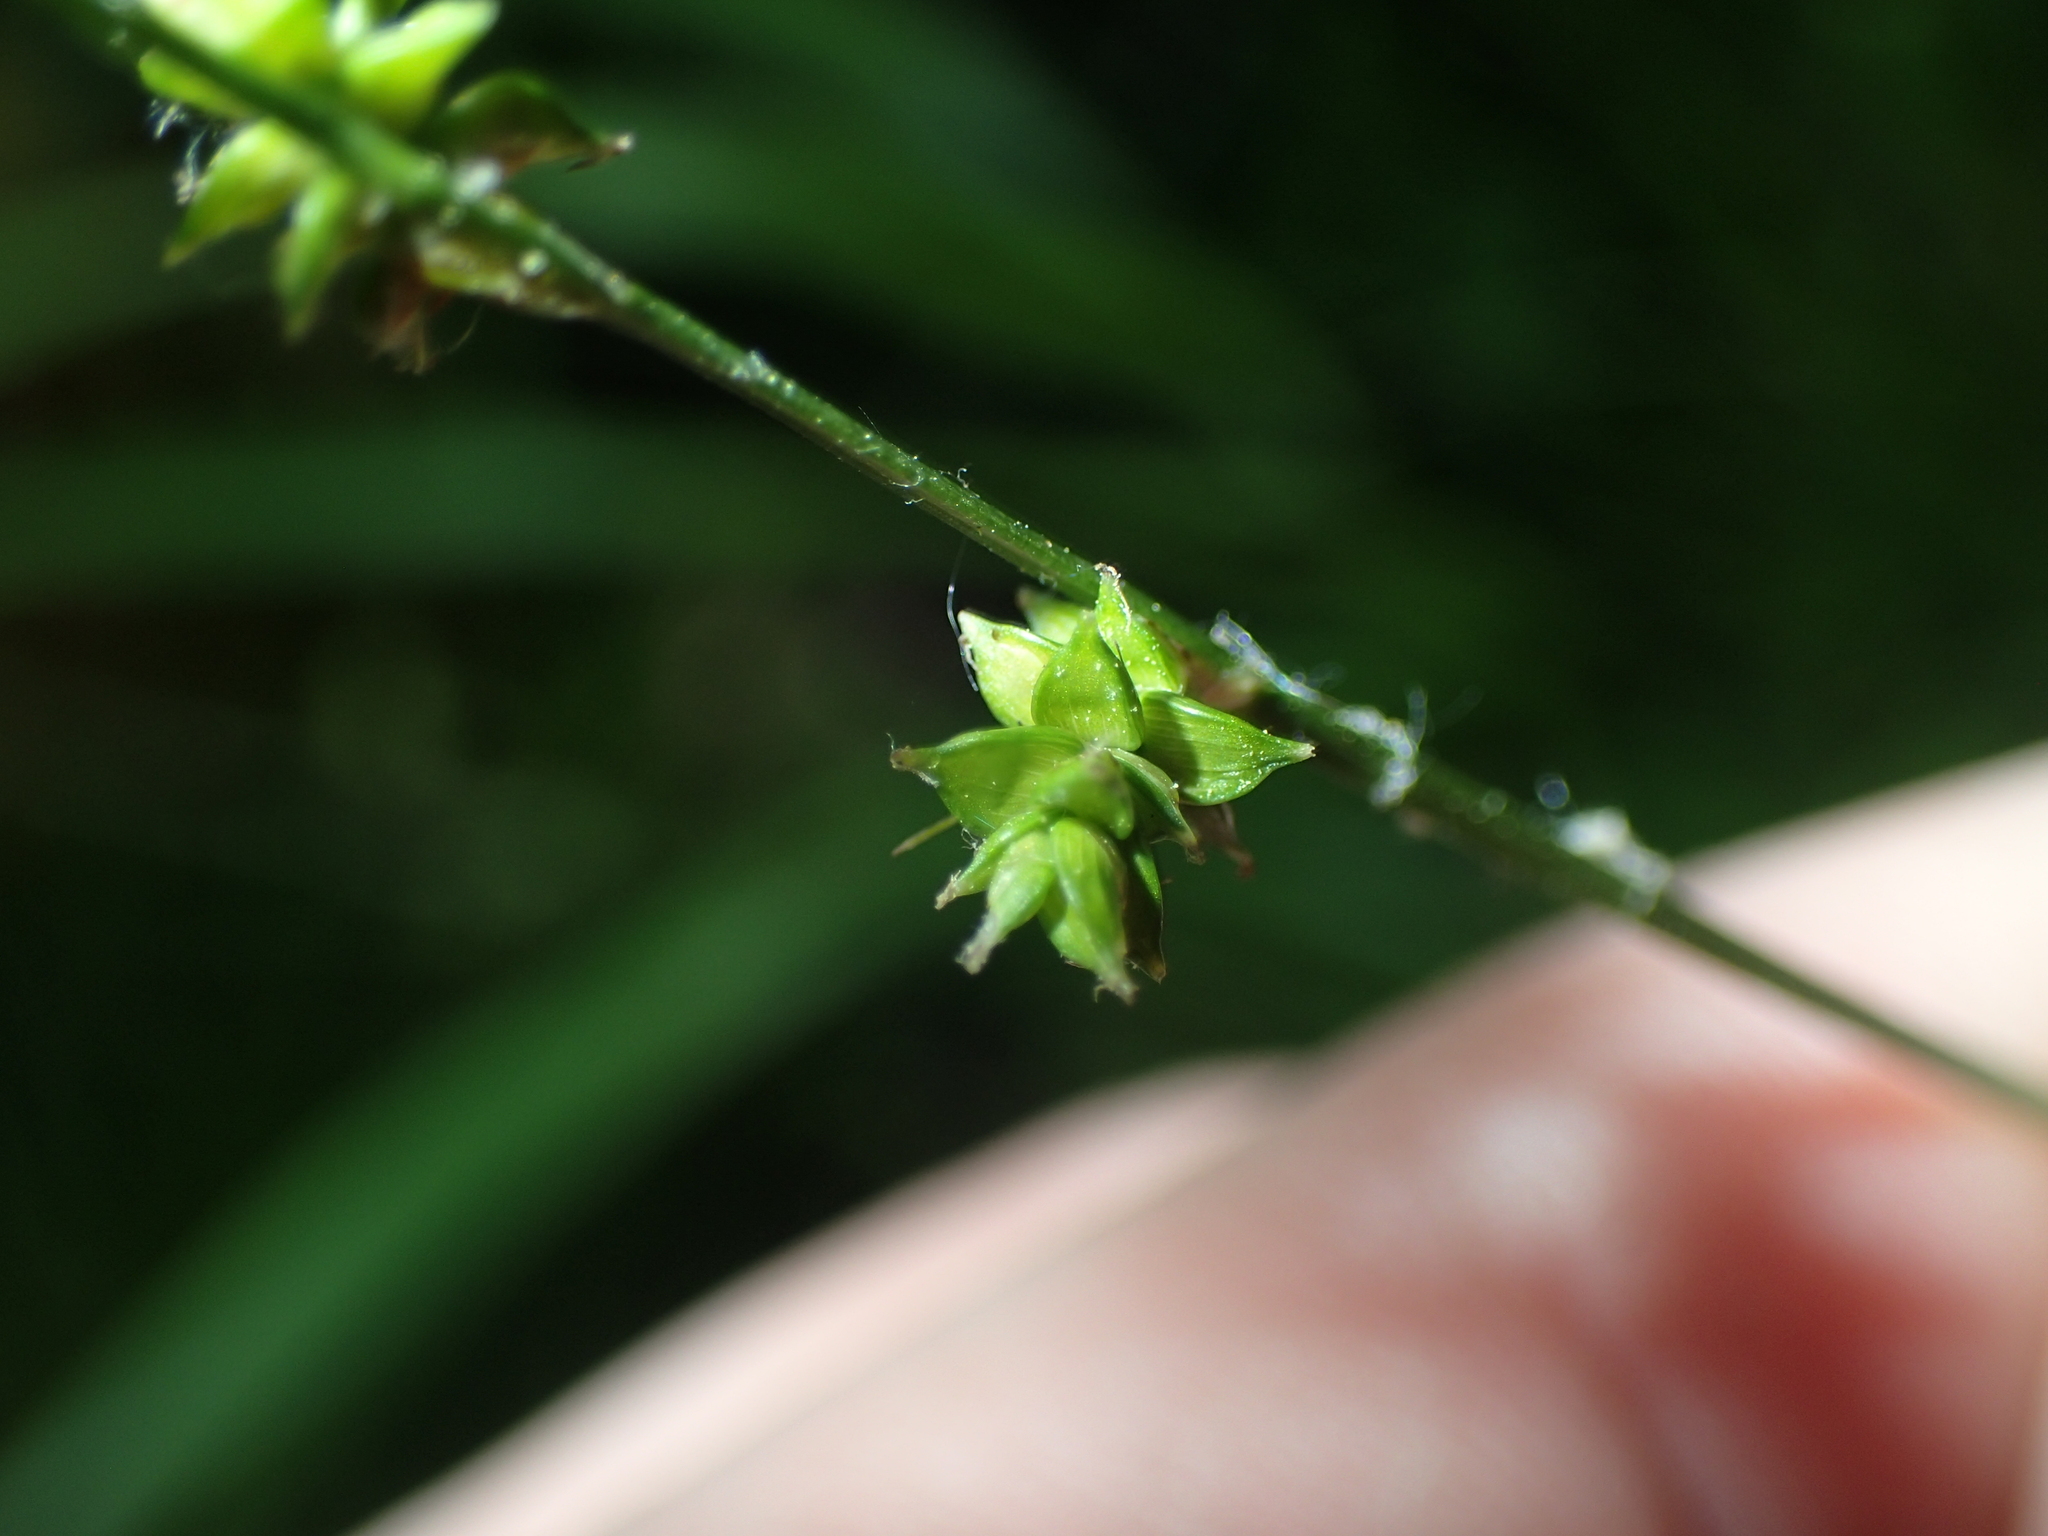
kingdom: Plantae
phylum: Tracheophyta
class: Liliopsida
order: Poales
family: Cyperaceae
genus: Carex
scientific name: Carex seorsa
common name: Swamp star sedge
